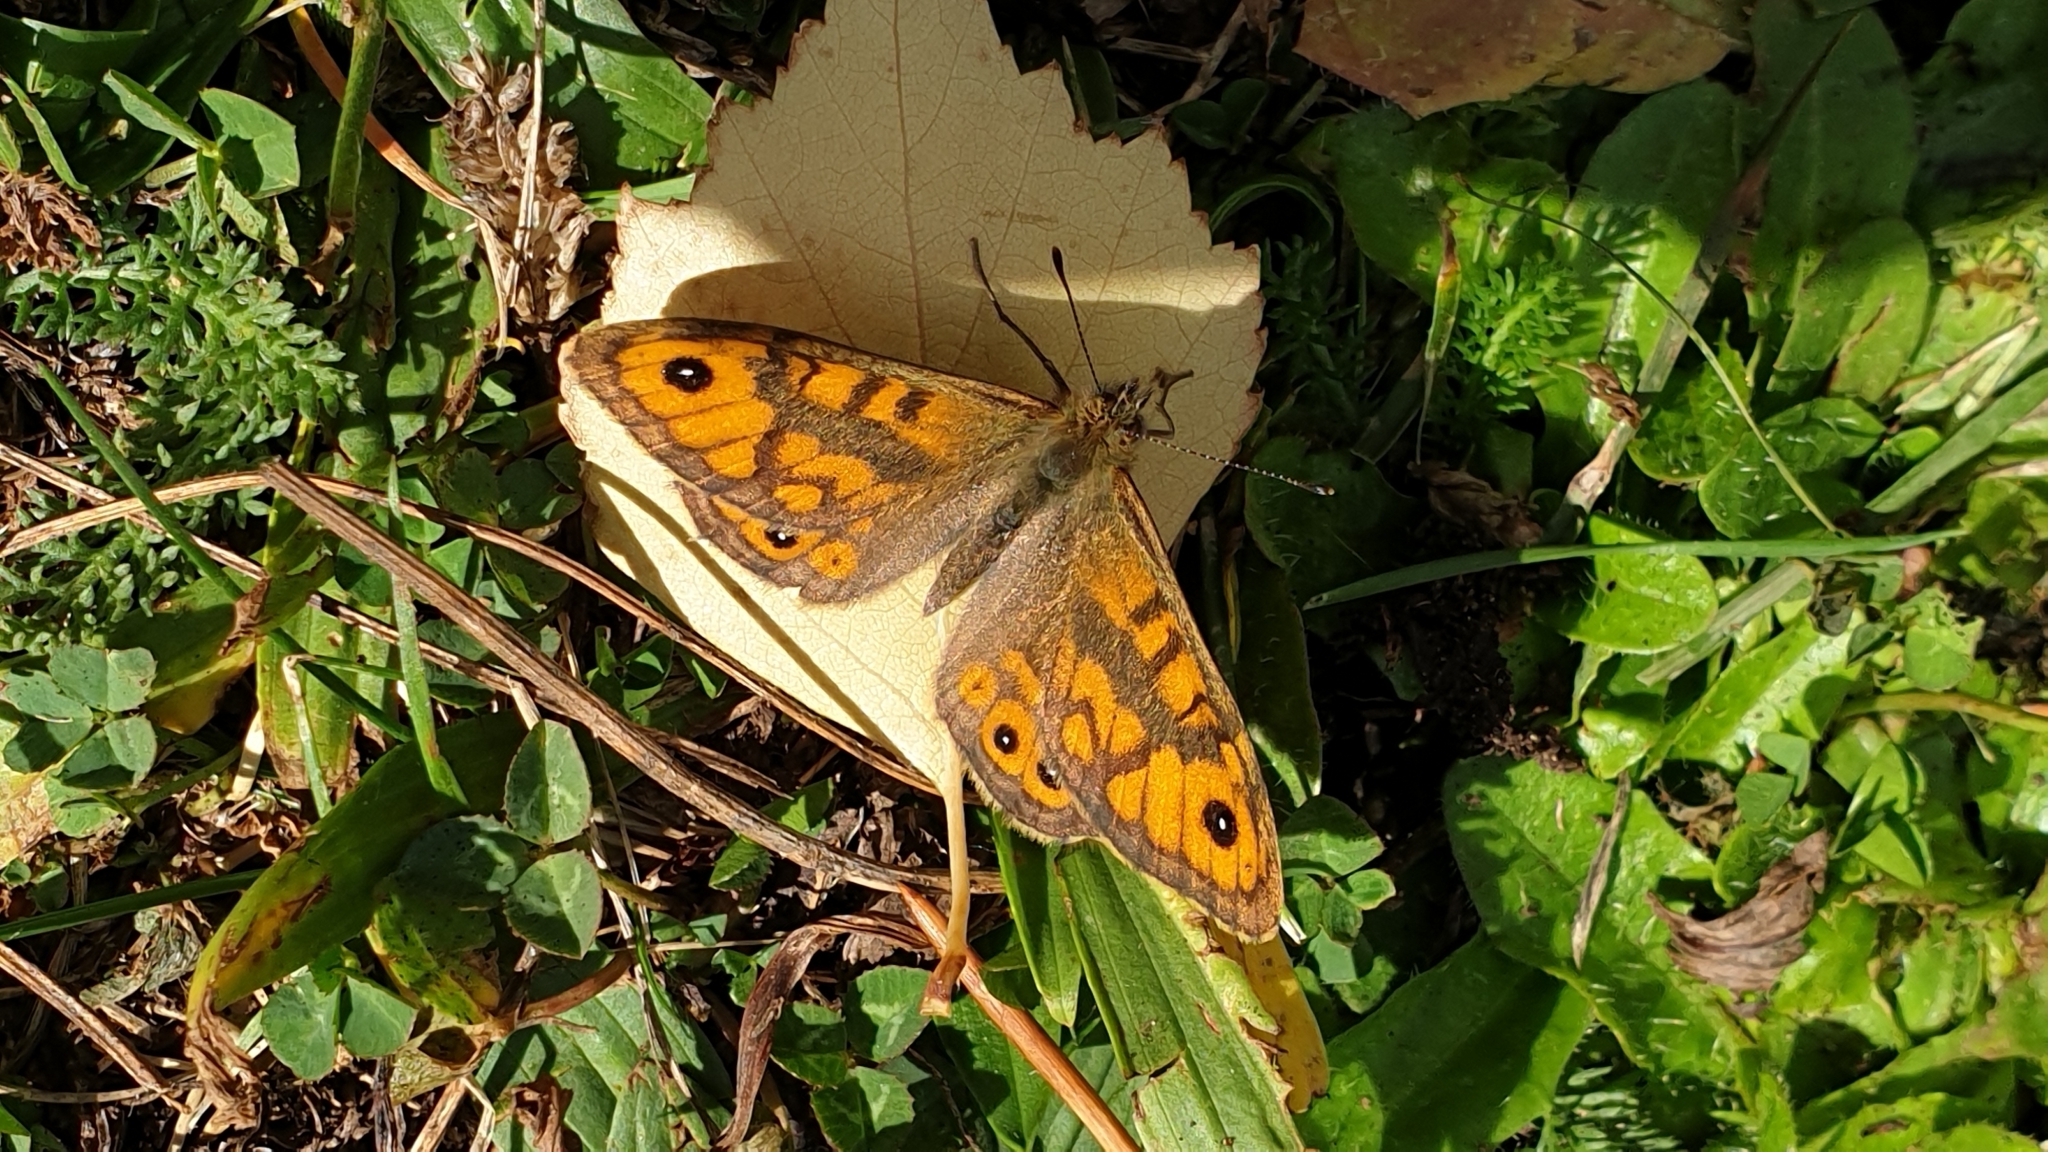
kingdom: Animalia
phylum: Arthropoda
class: Insecta
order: Lepidoptera
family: Nymphalidae
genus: Pararge
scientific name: Pararge Lasiommata megera
